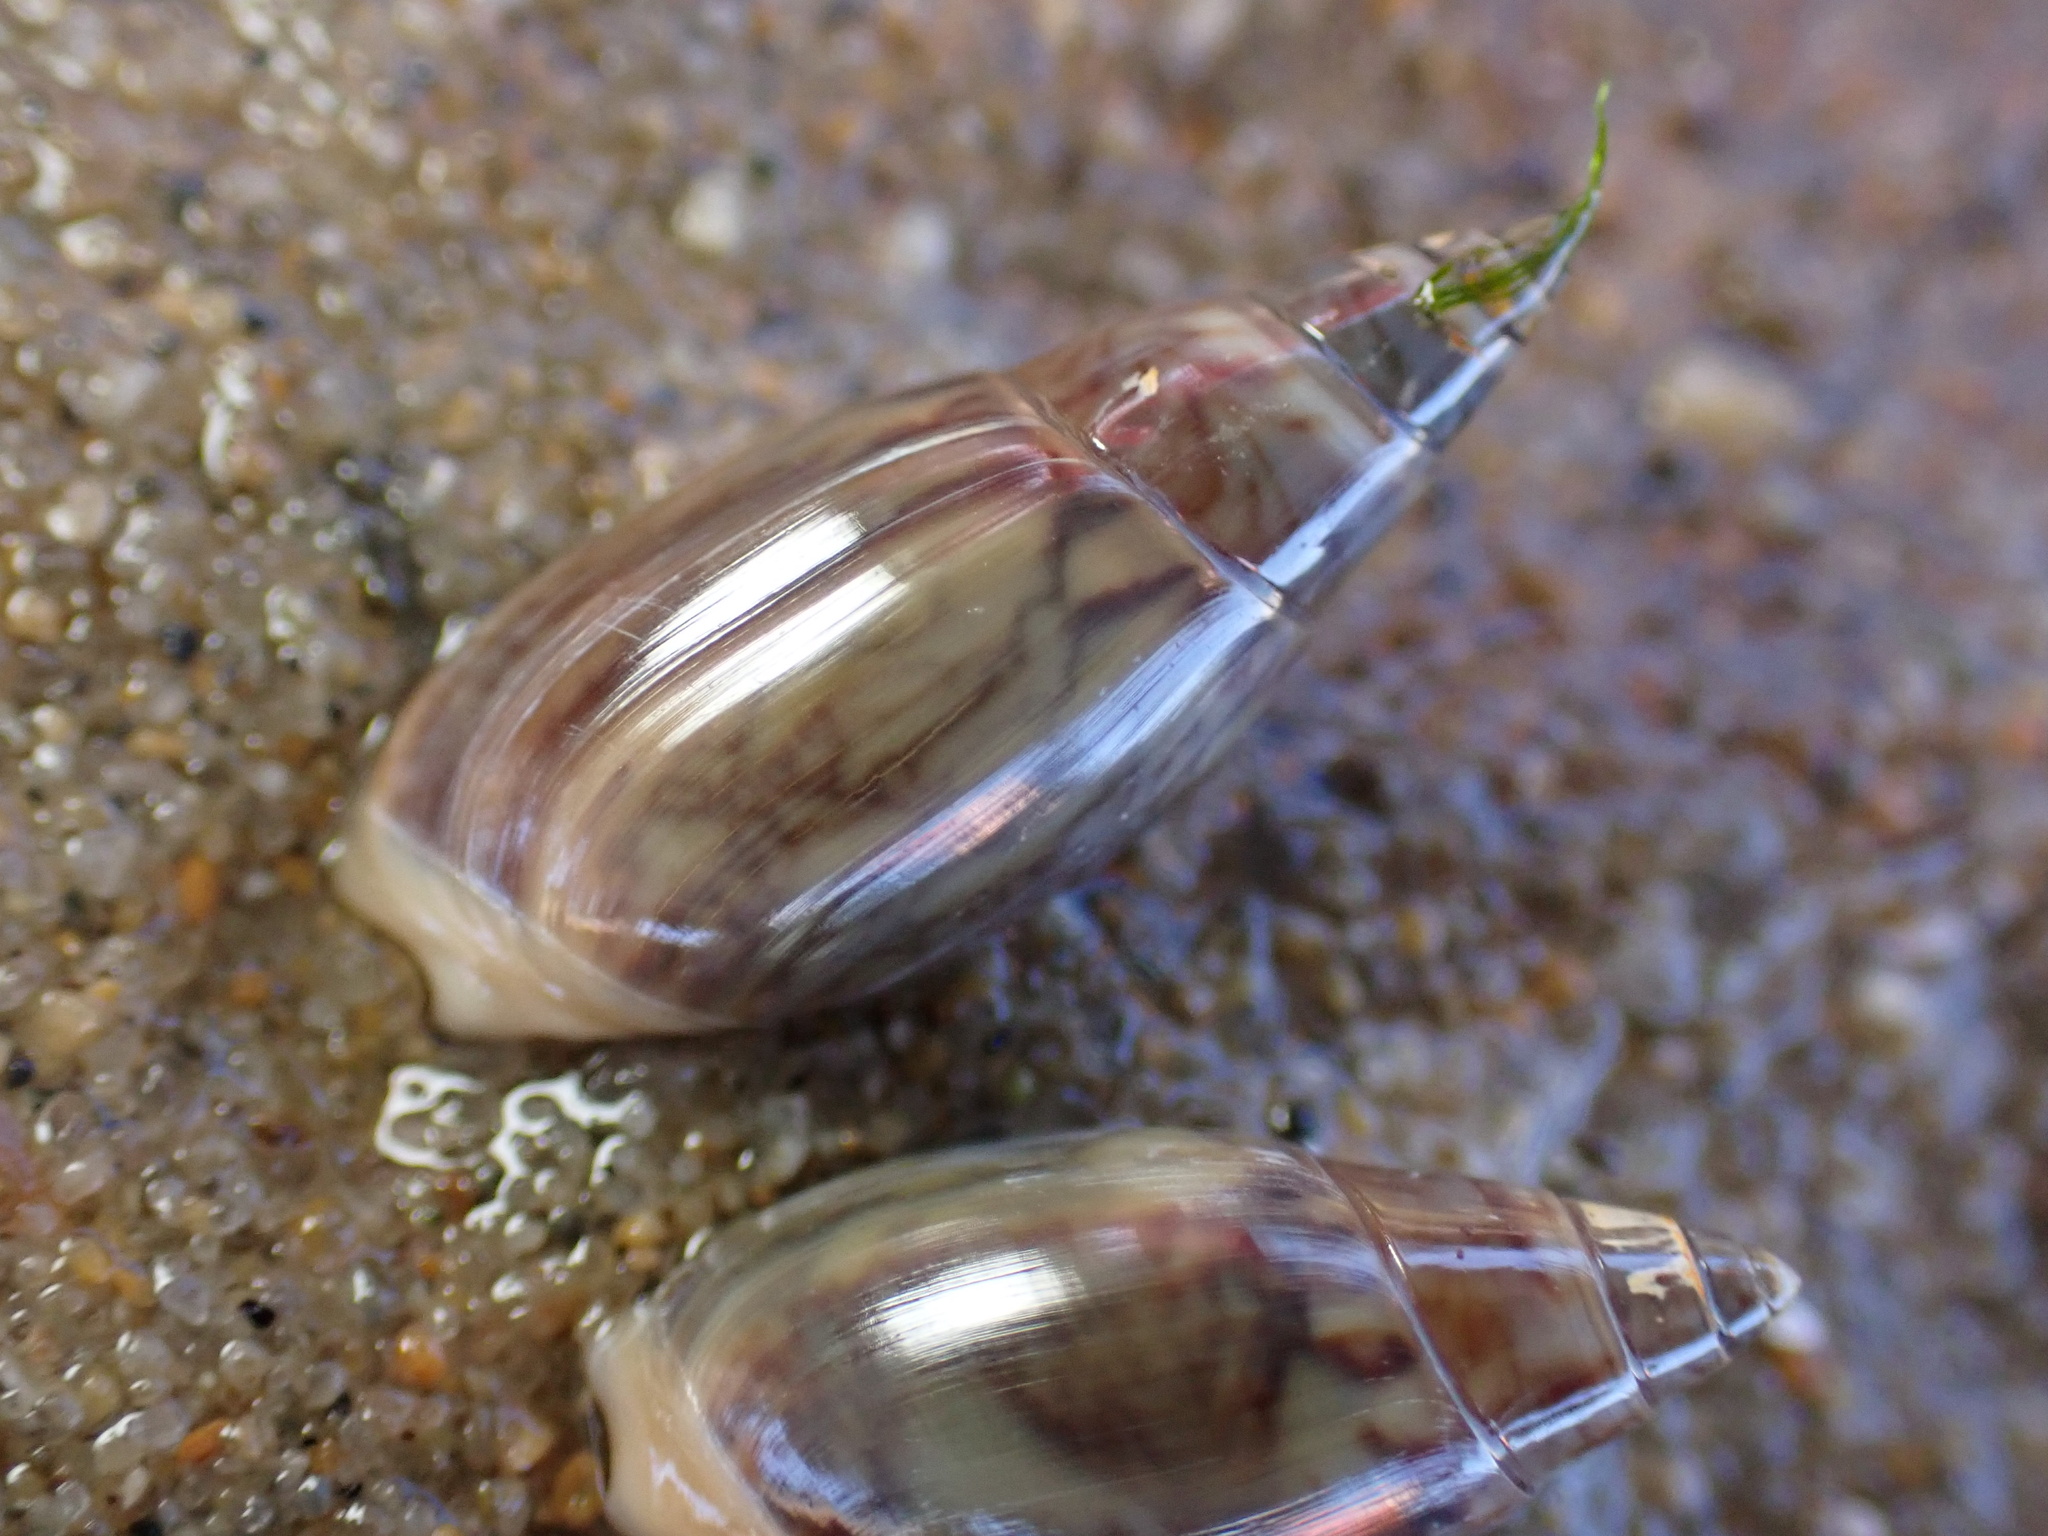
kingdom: Animalia
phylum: Mollusca
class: Gastropoda
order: Neogastropoda
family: Olividae
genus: Callianax
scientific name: Callianax alectona
